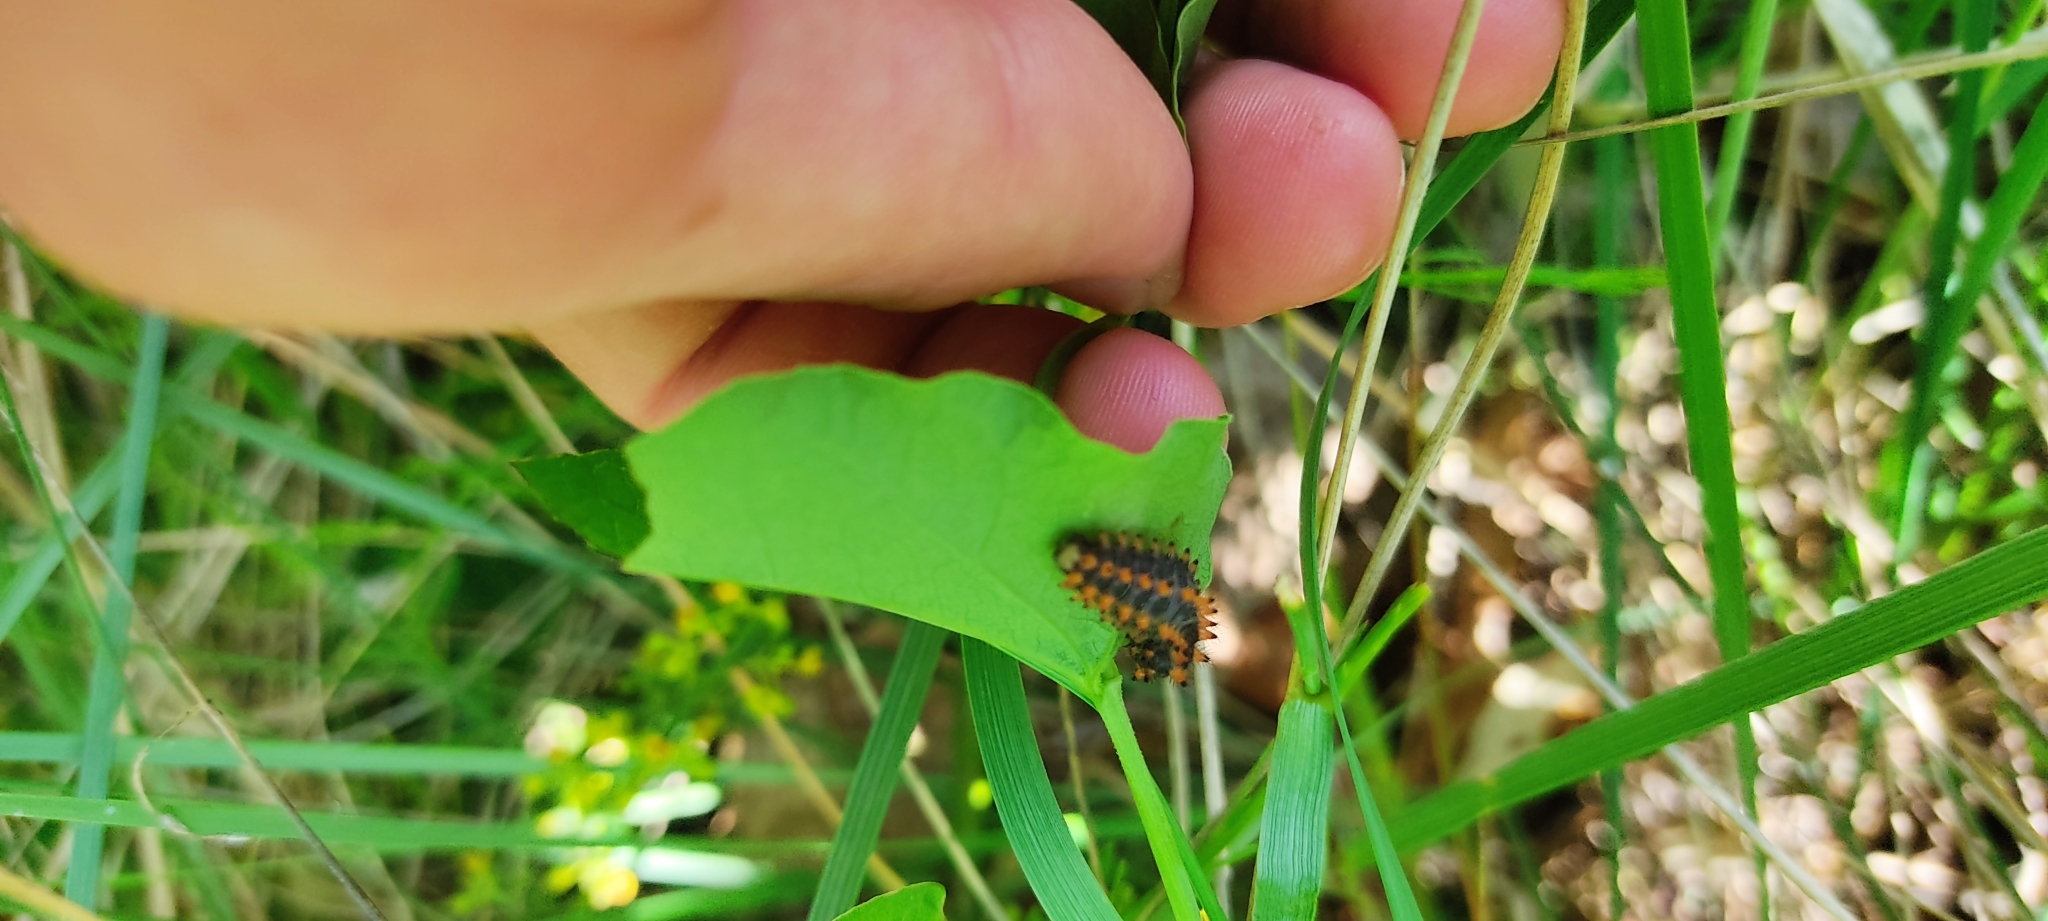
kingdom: Animalia
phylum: Arthropoda
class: Insecta
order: Lepidoptera
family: Papilionidae
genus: Zerynthia
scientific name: Zerynthia polyxena
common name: Southern festoon
